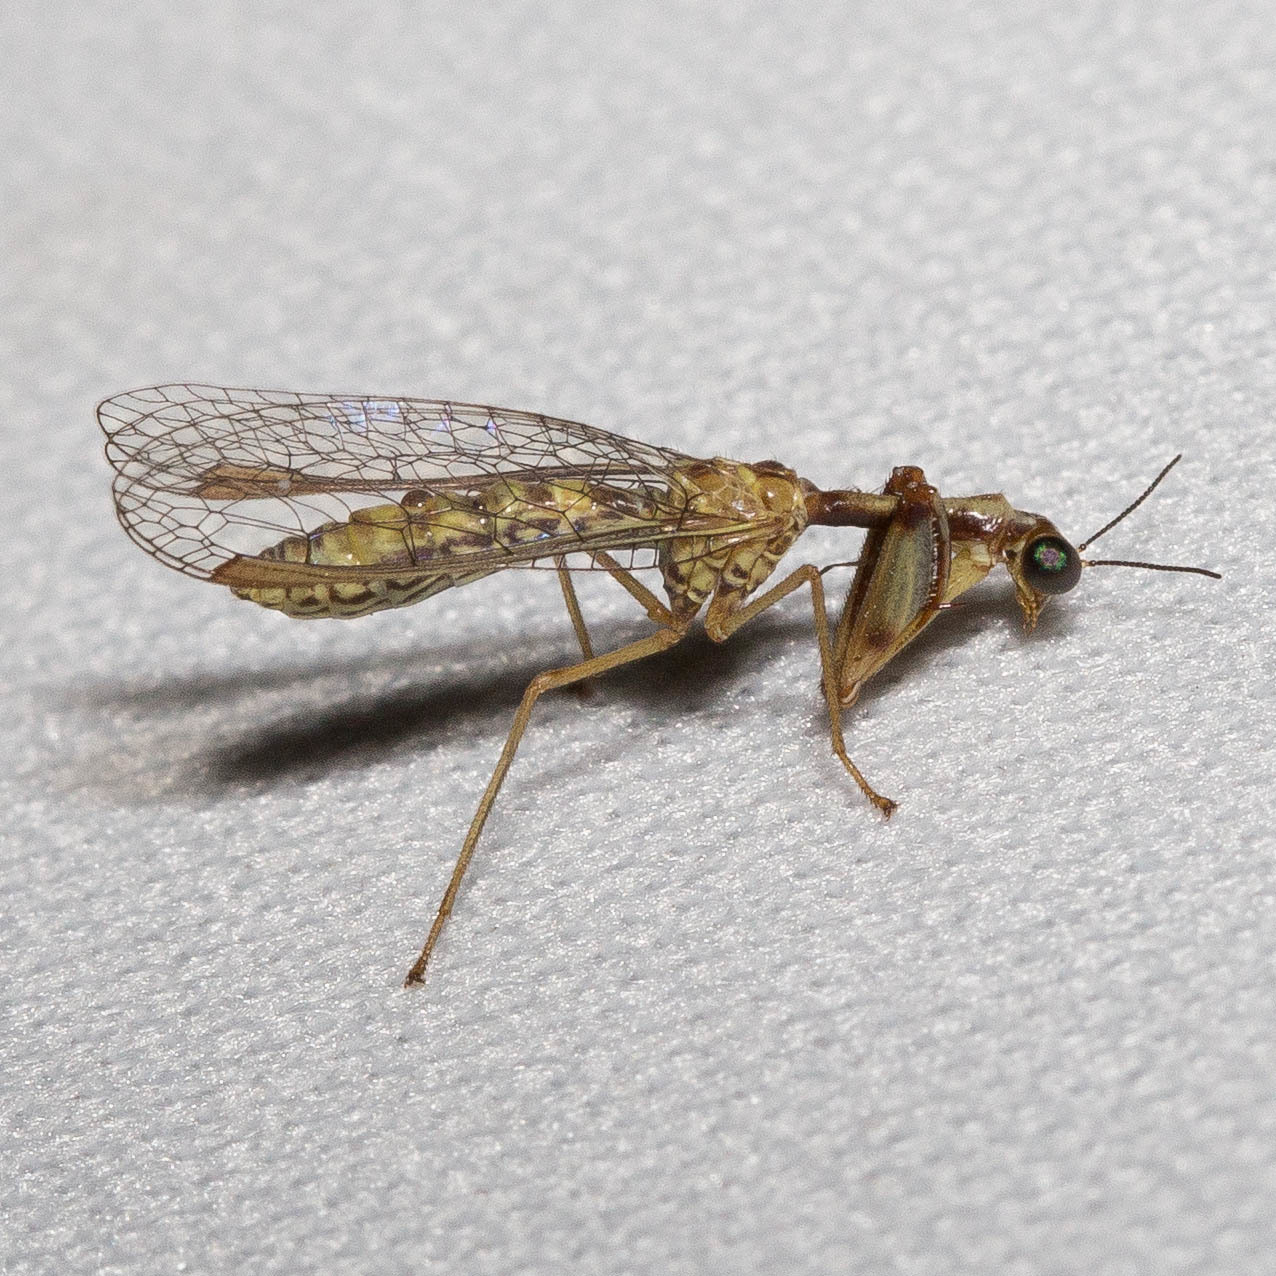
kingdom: Animalia
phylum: Arthropoda
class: Insecta
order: Neuroptera
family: Mantispidae
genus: Leptomantispa
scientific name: Leptomantispa pulchella
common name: Stevens's mantidfly
